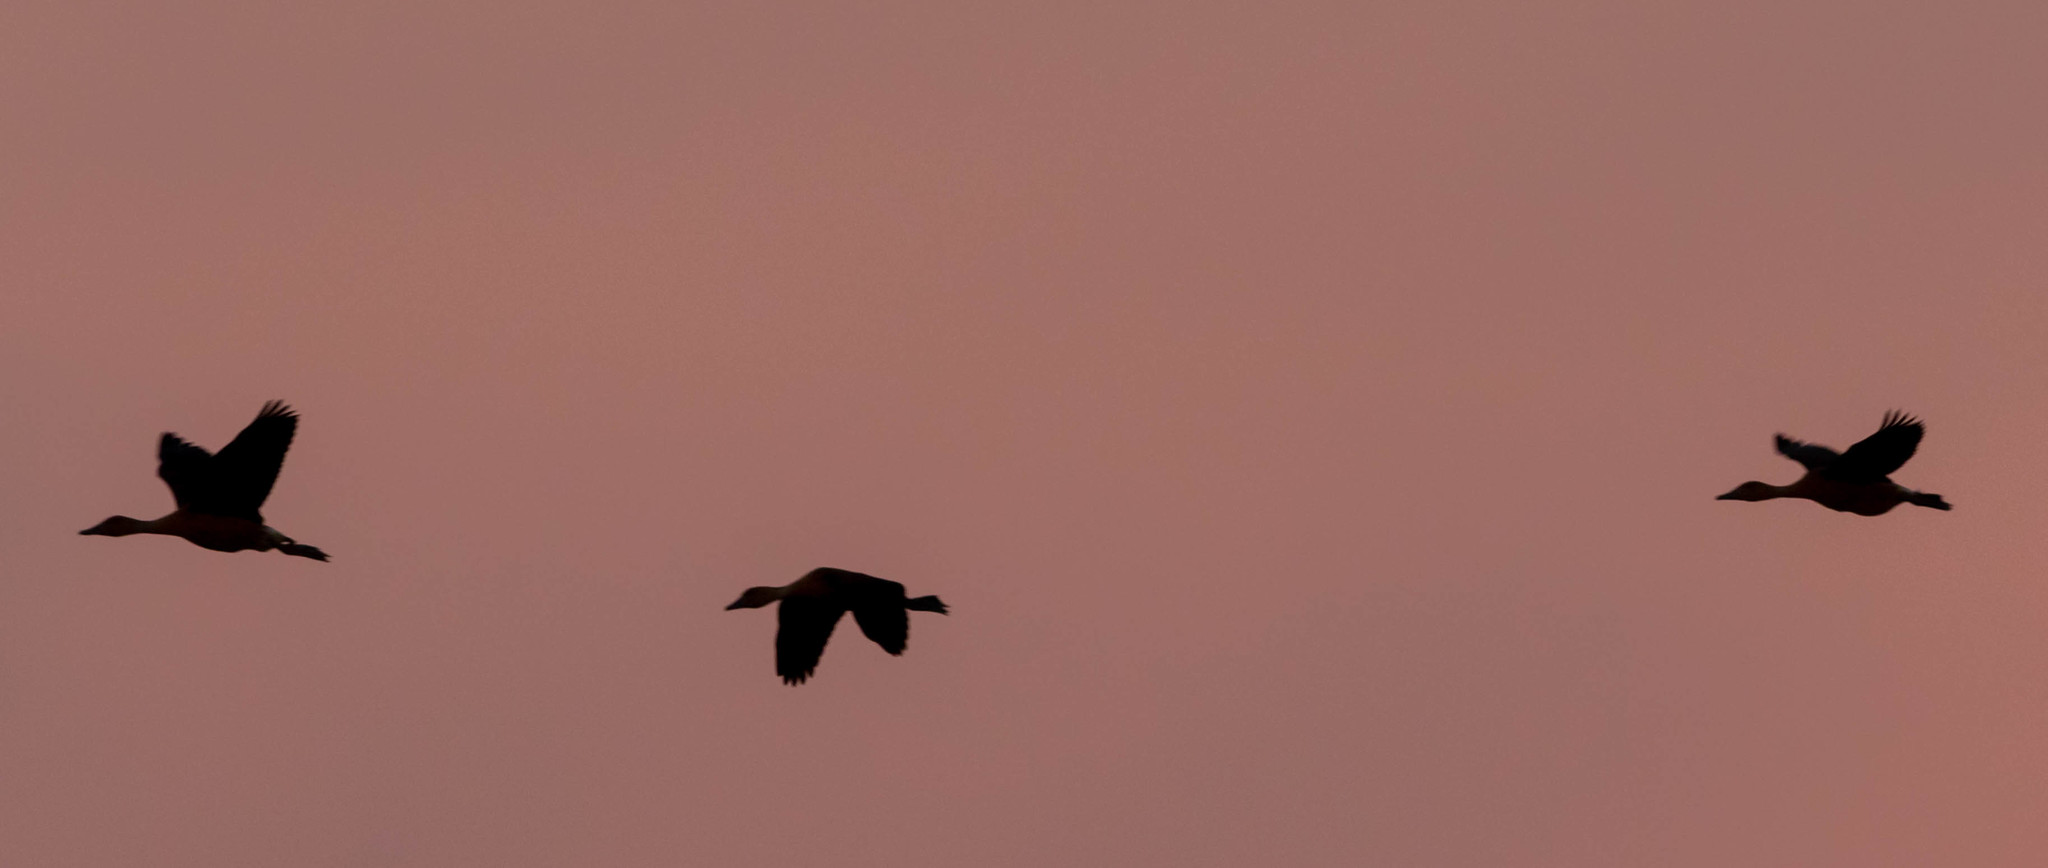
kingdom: Animalia
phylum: Chordata
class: Aves
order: Anseriformes
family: Anatidae
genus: Dendrocygna
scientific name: Dendrocygna bicolor
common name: Fulvous whistling duck
